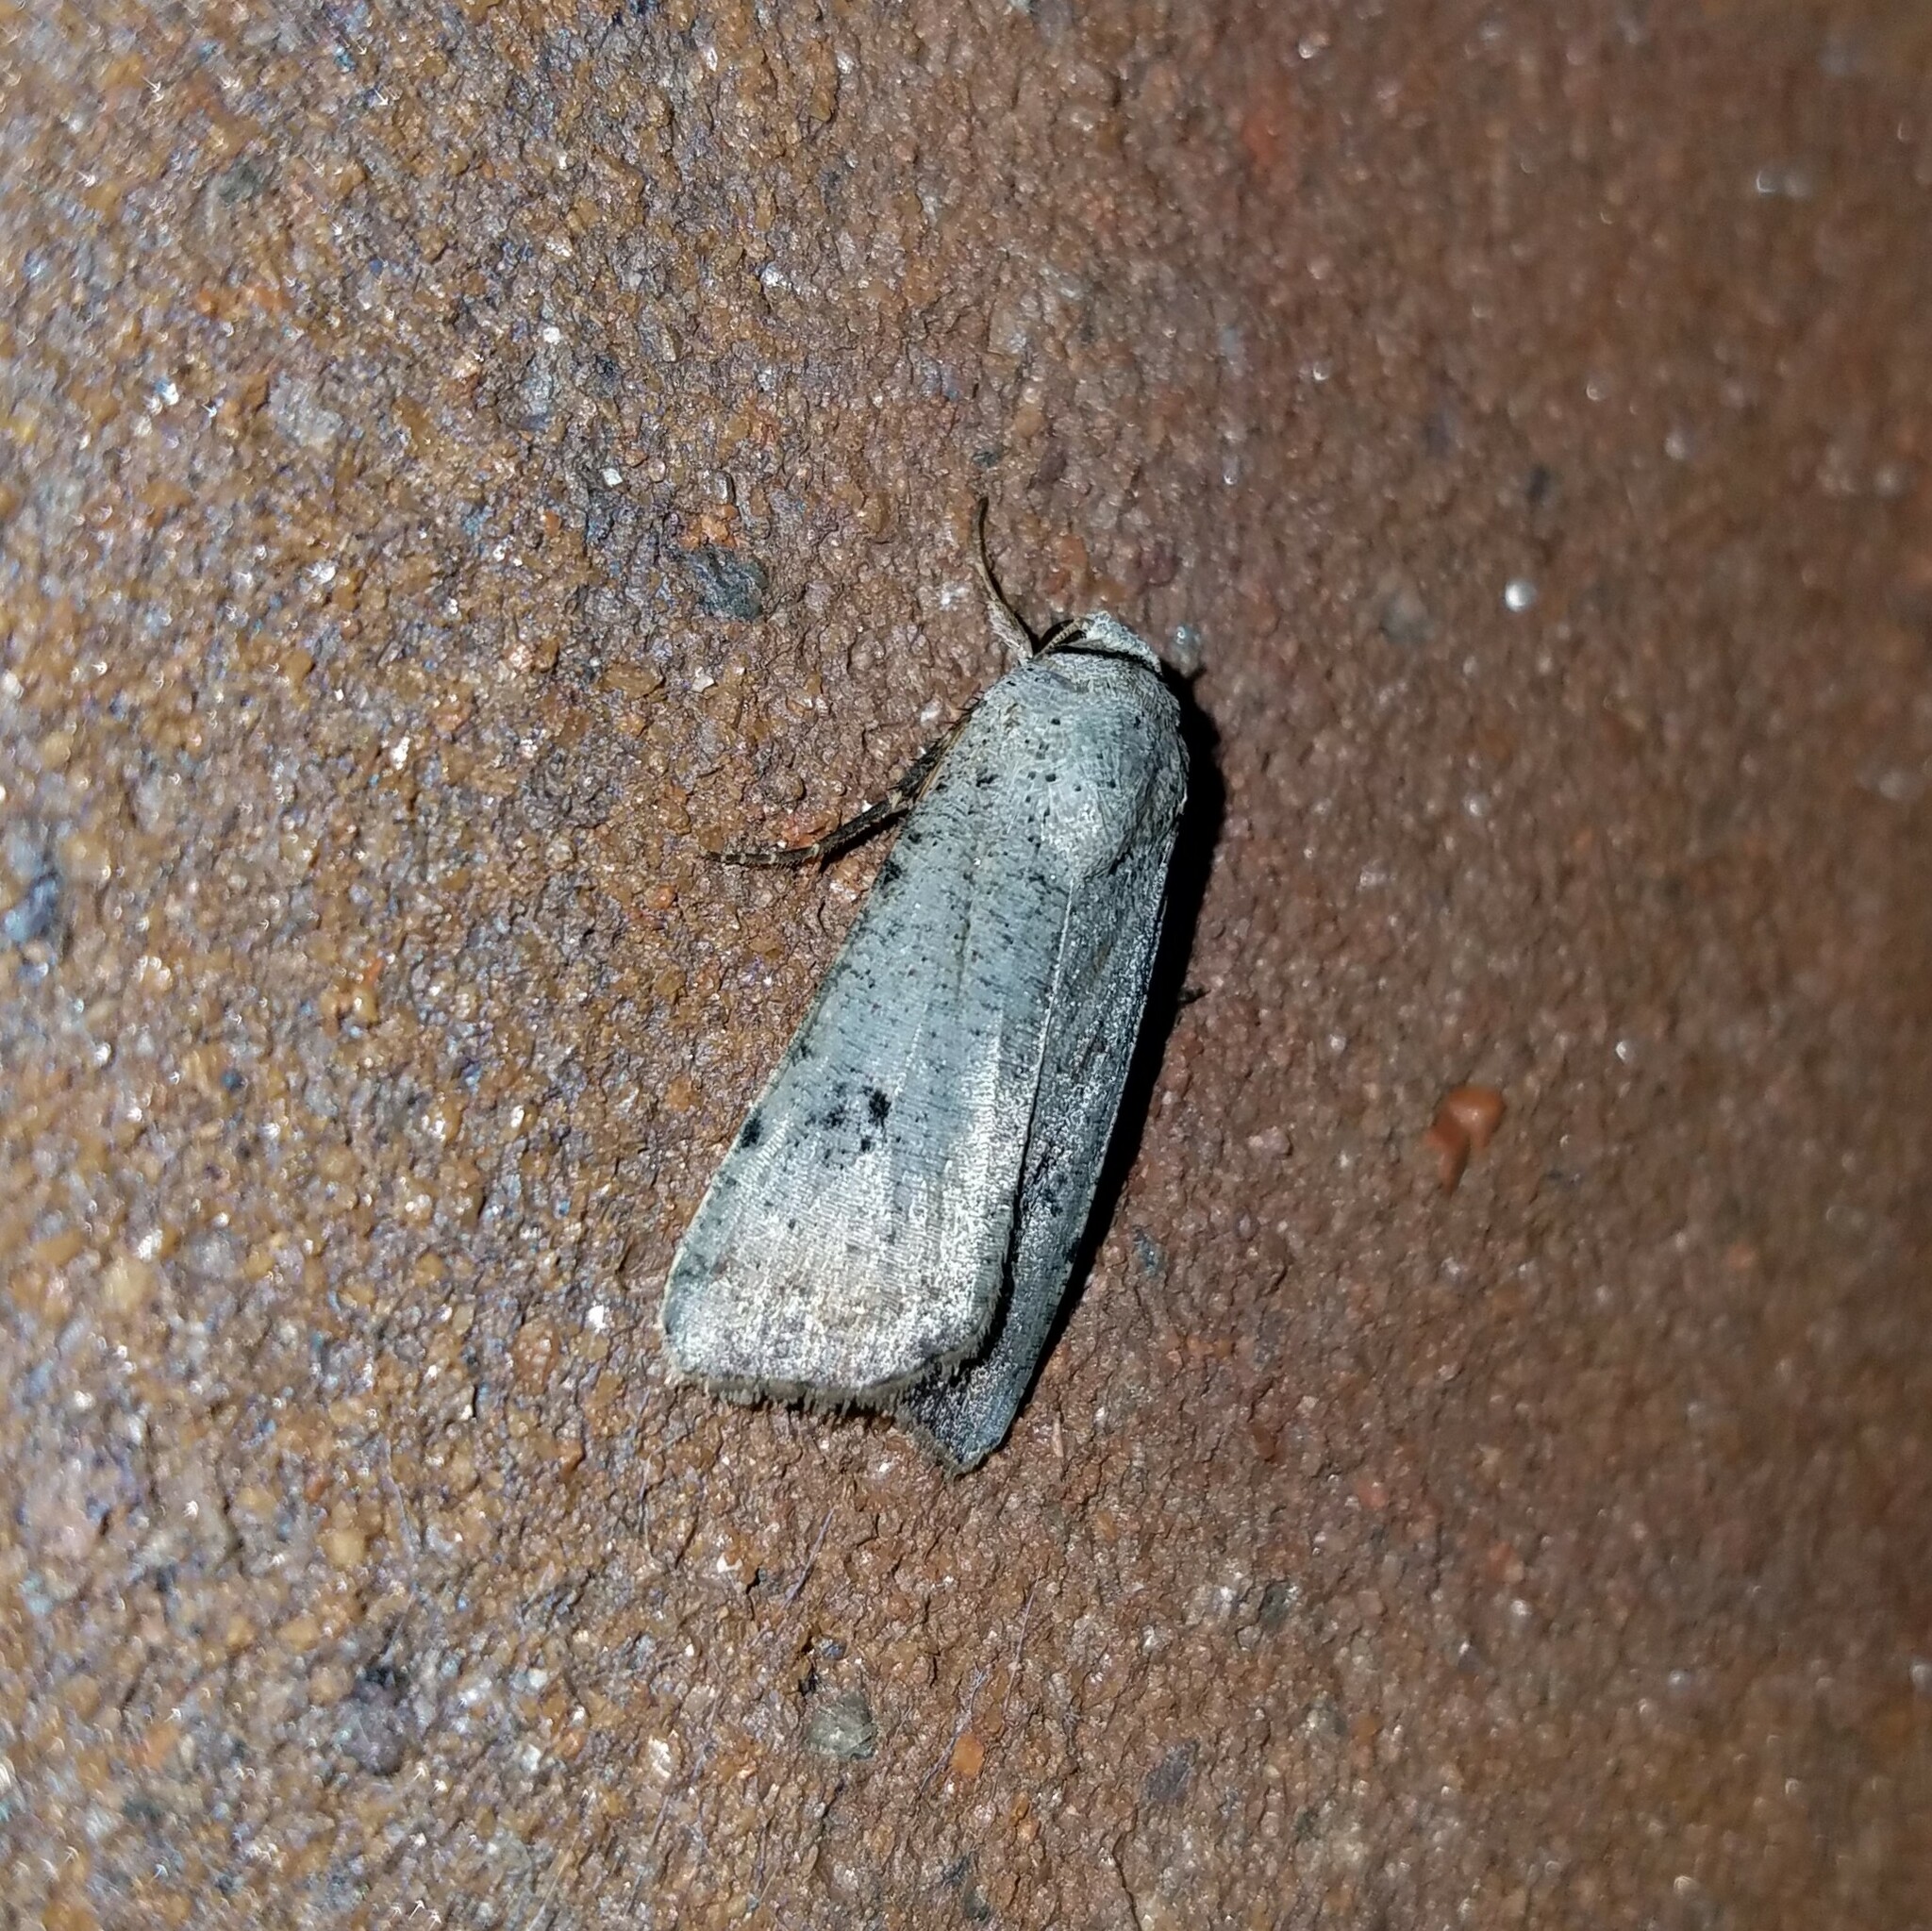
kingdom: Animalia
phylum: Arthropoda
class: Insecta
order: Lepidoptera
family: Noctuidae
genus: Anicla
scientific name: Anicla infecta
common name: Green cutworm
